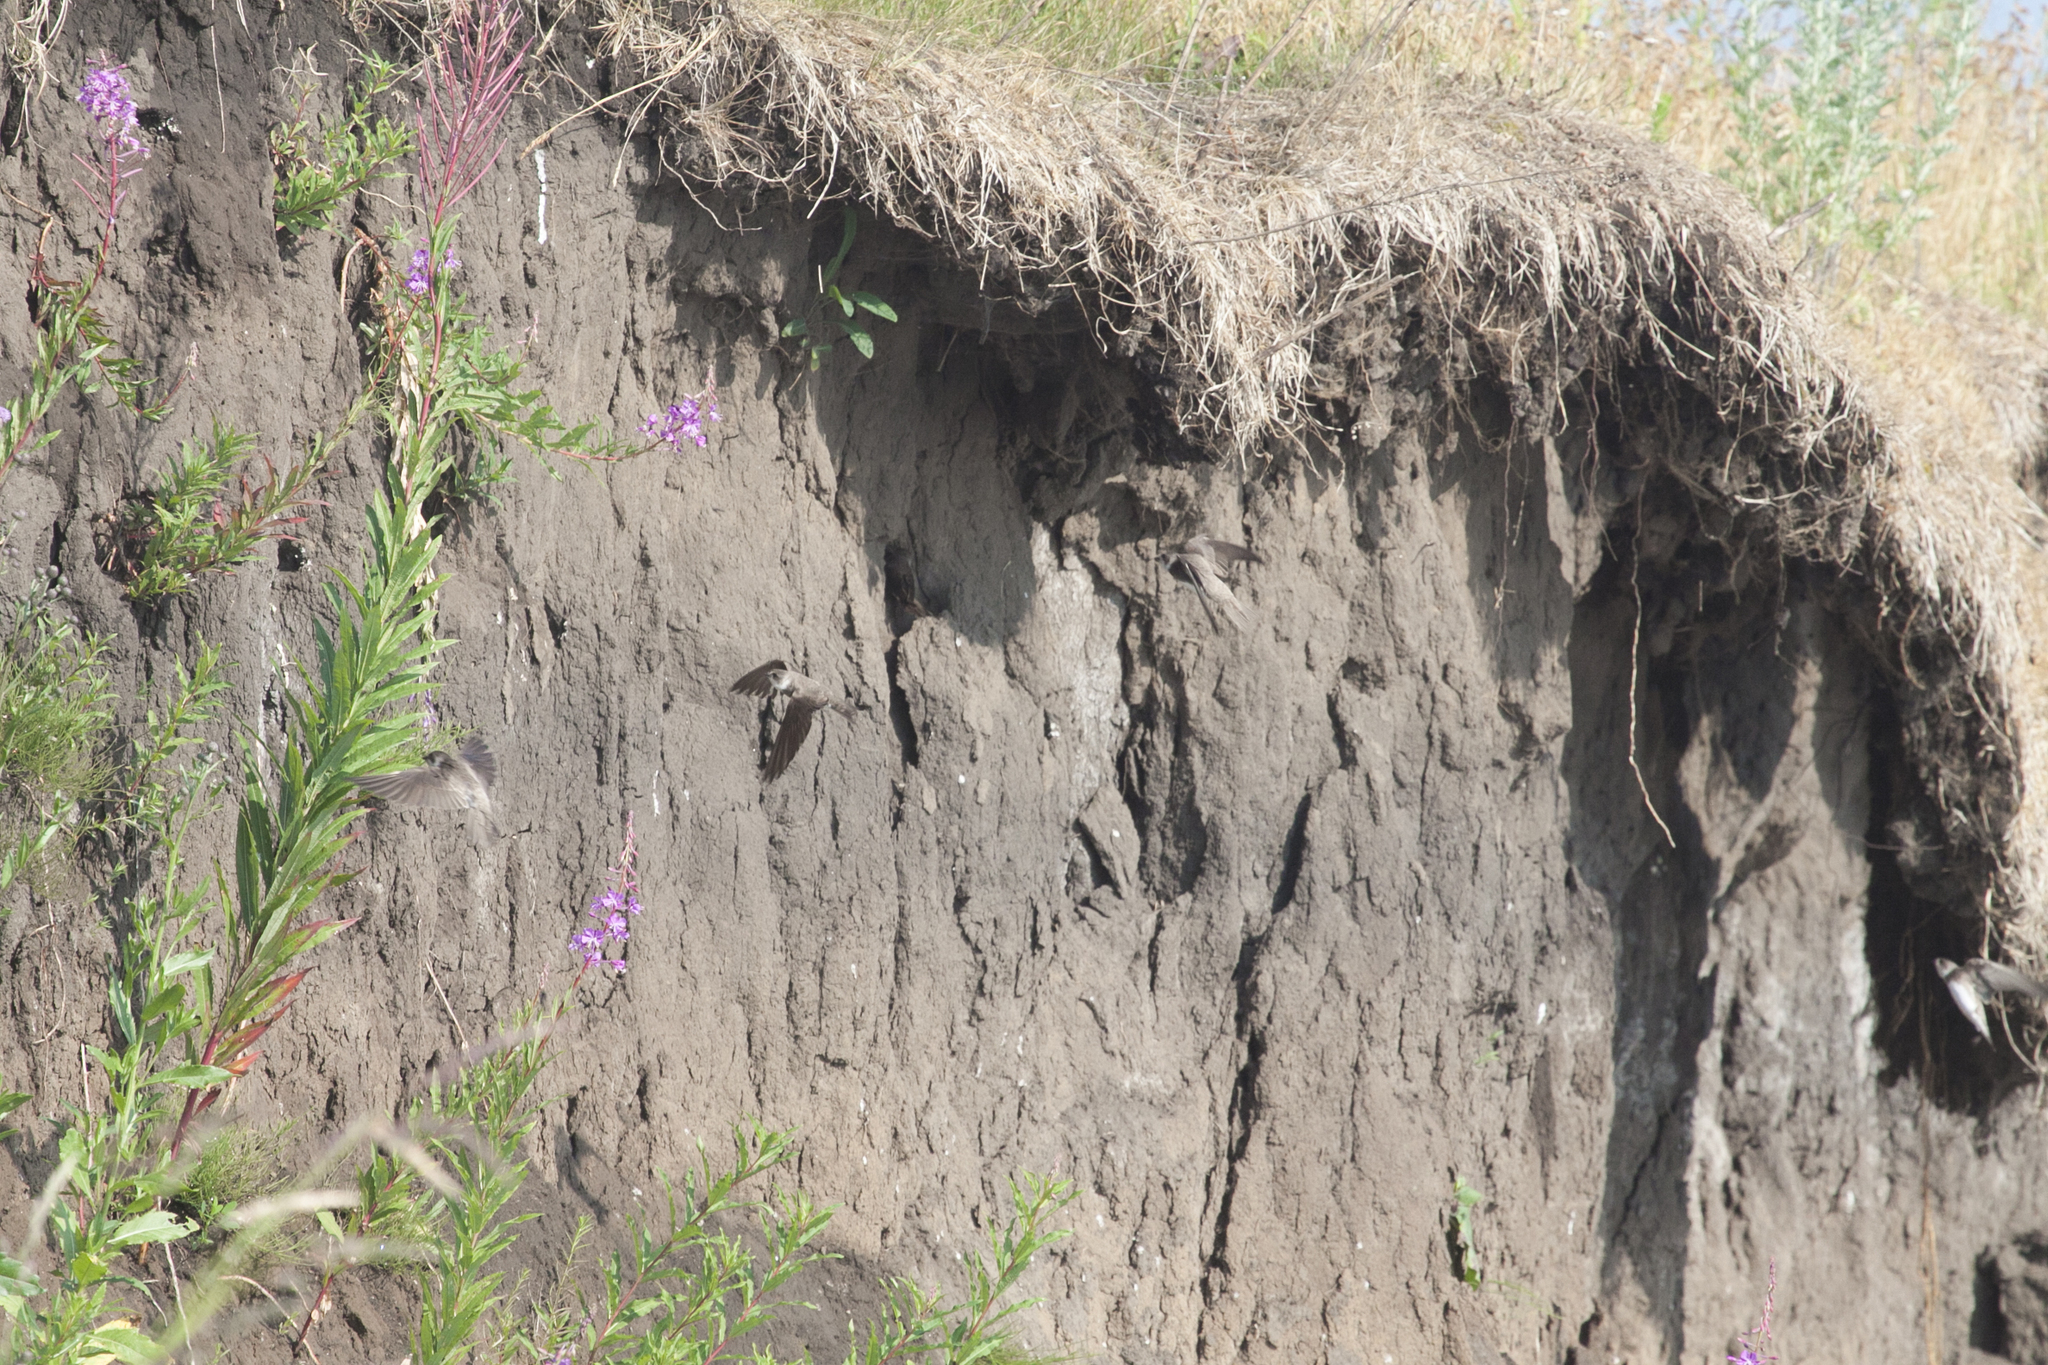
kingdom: Animalia
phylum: Chordata
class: Aves
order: Passeriformes
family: Hirundinidae
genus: Riparia
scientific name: Riparia riparia
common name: Sand martin
